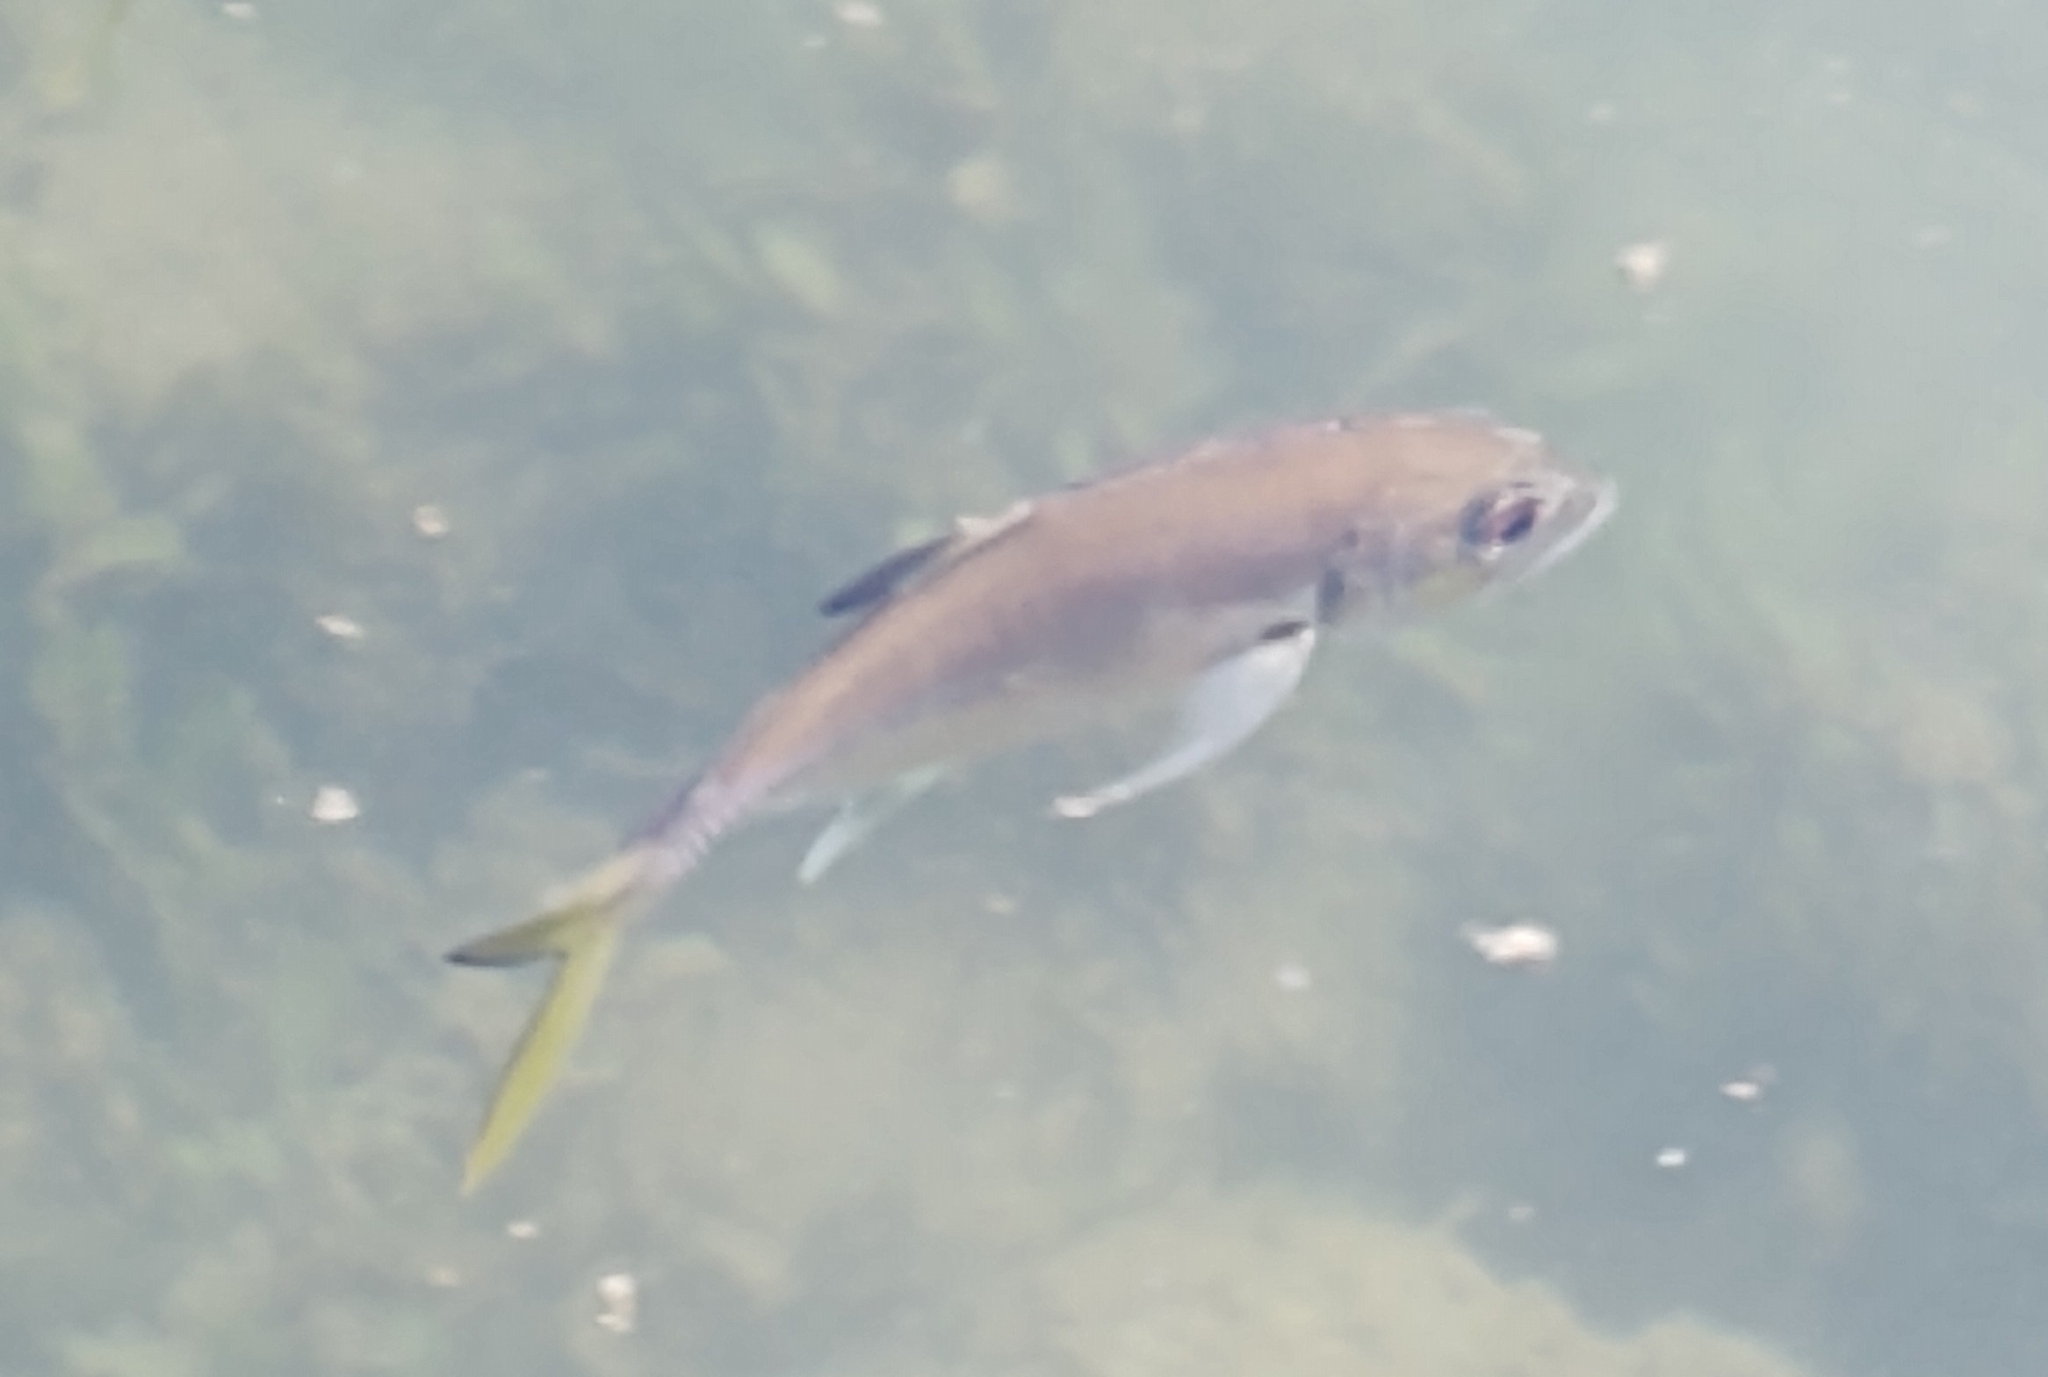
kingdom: Animalia
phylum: Chordata
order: Perciformes
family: Carangidae
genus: Caranx
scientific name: Caranx latus
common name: Horse eye jack
